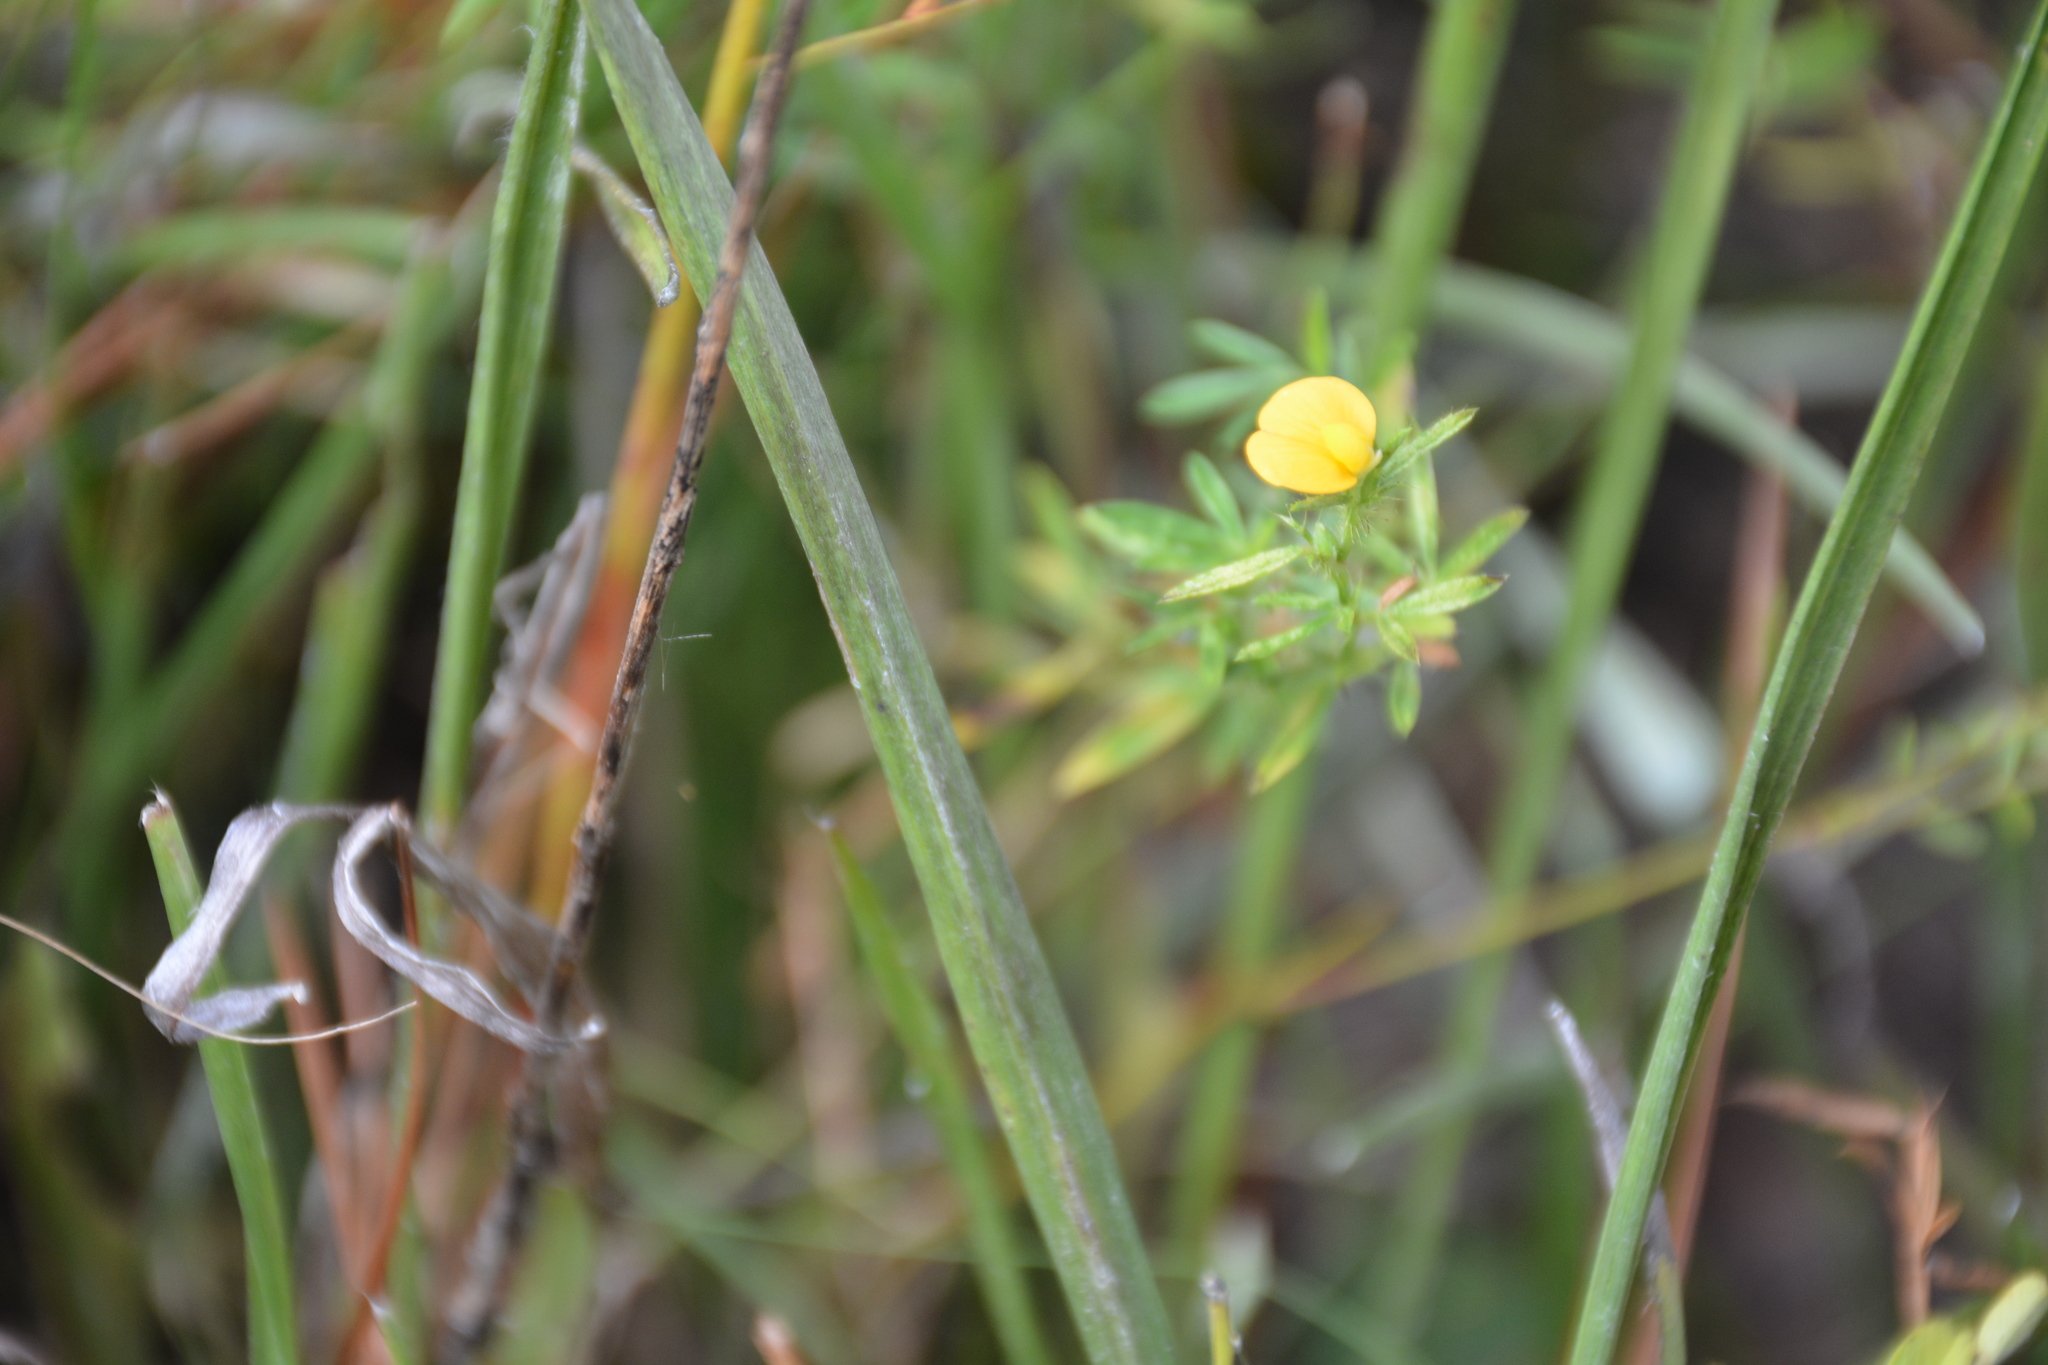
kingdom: Plantae
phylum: Tracheophyta
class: Magnoliopsida
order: Fabales
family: Fabaceae
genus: Stylosanthes
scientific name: Stylosanthes biflora
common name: Two-flower pencil-flower
